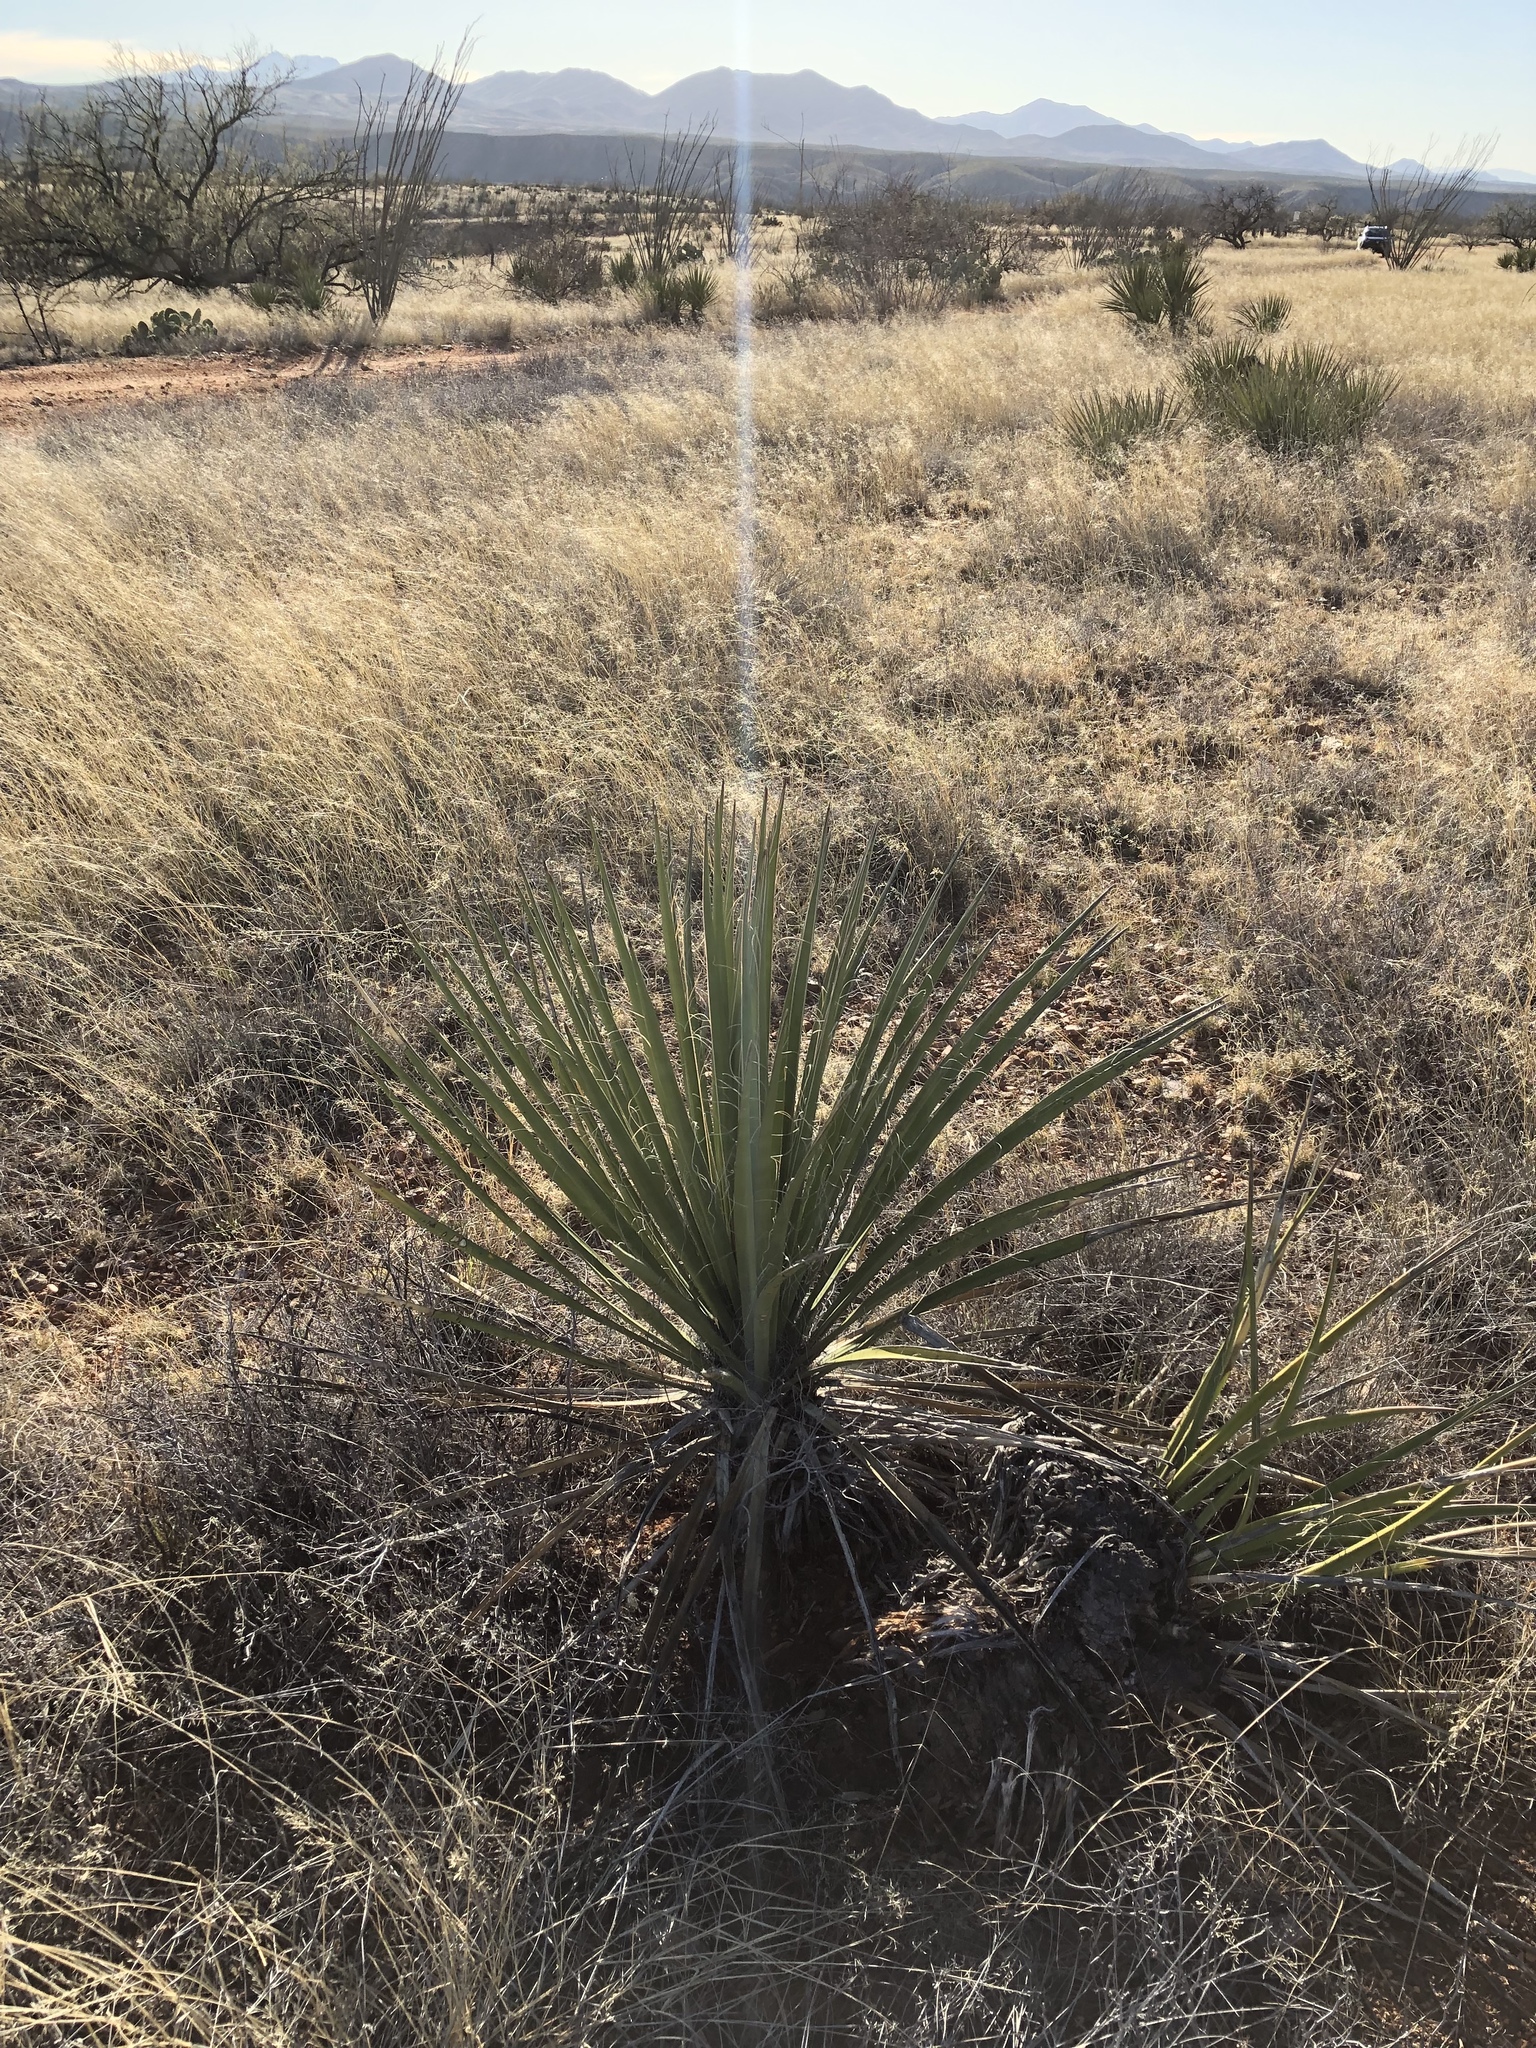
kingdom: Plantae
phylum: Tracheophyta
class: Liliopsida
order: Asparagales
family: Asparagaceae
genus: Yucca
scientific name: Yucca elata
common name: Palmella
